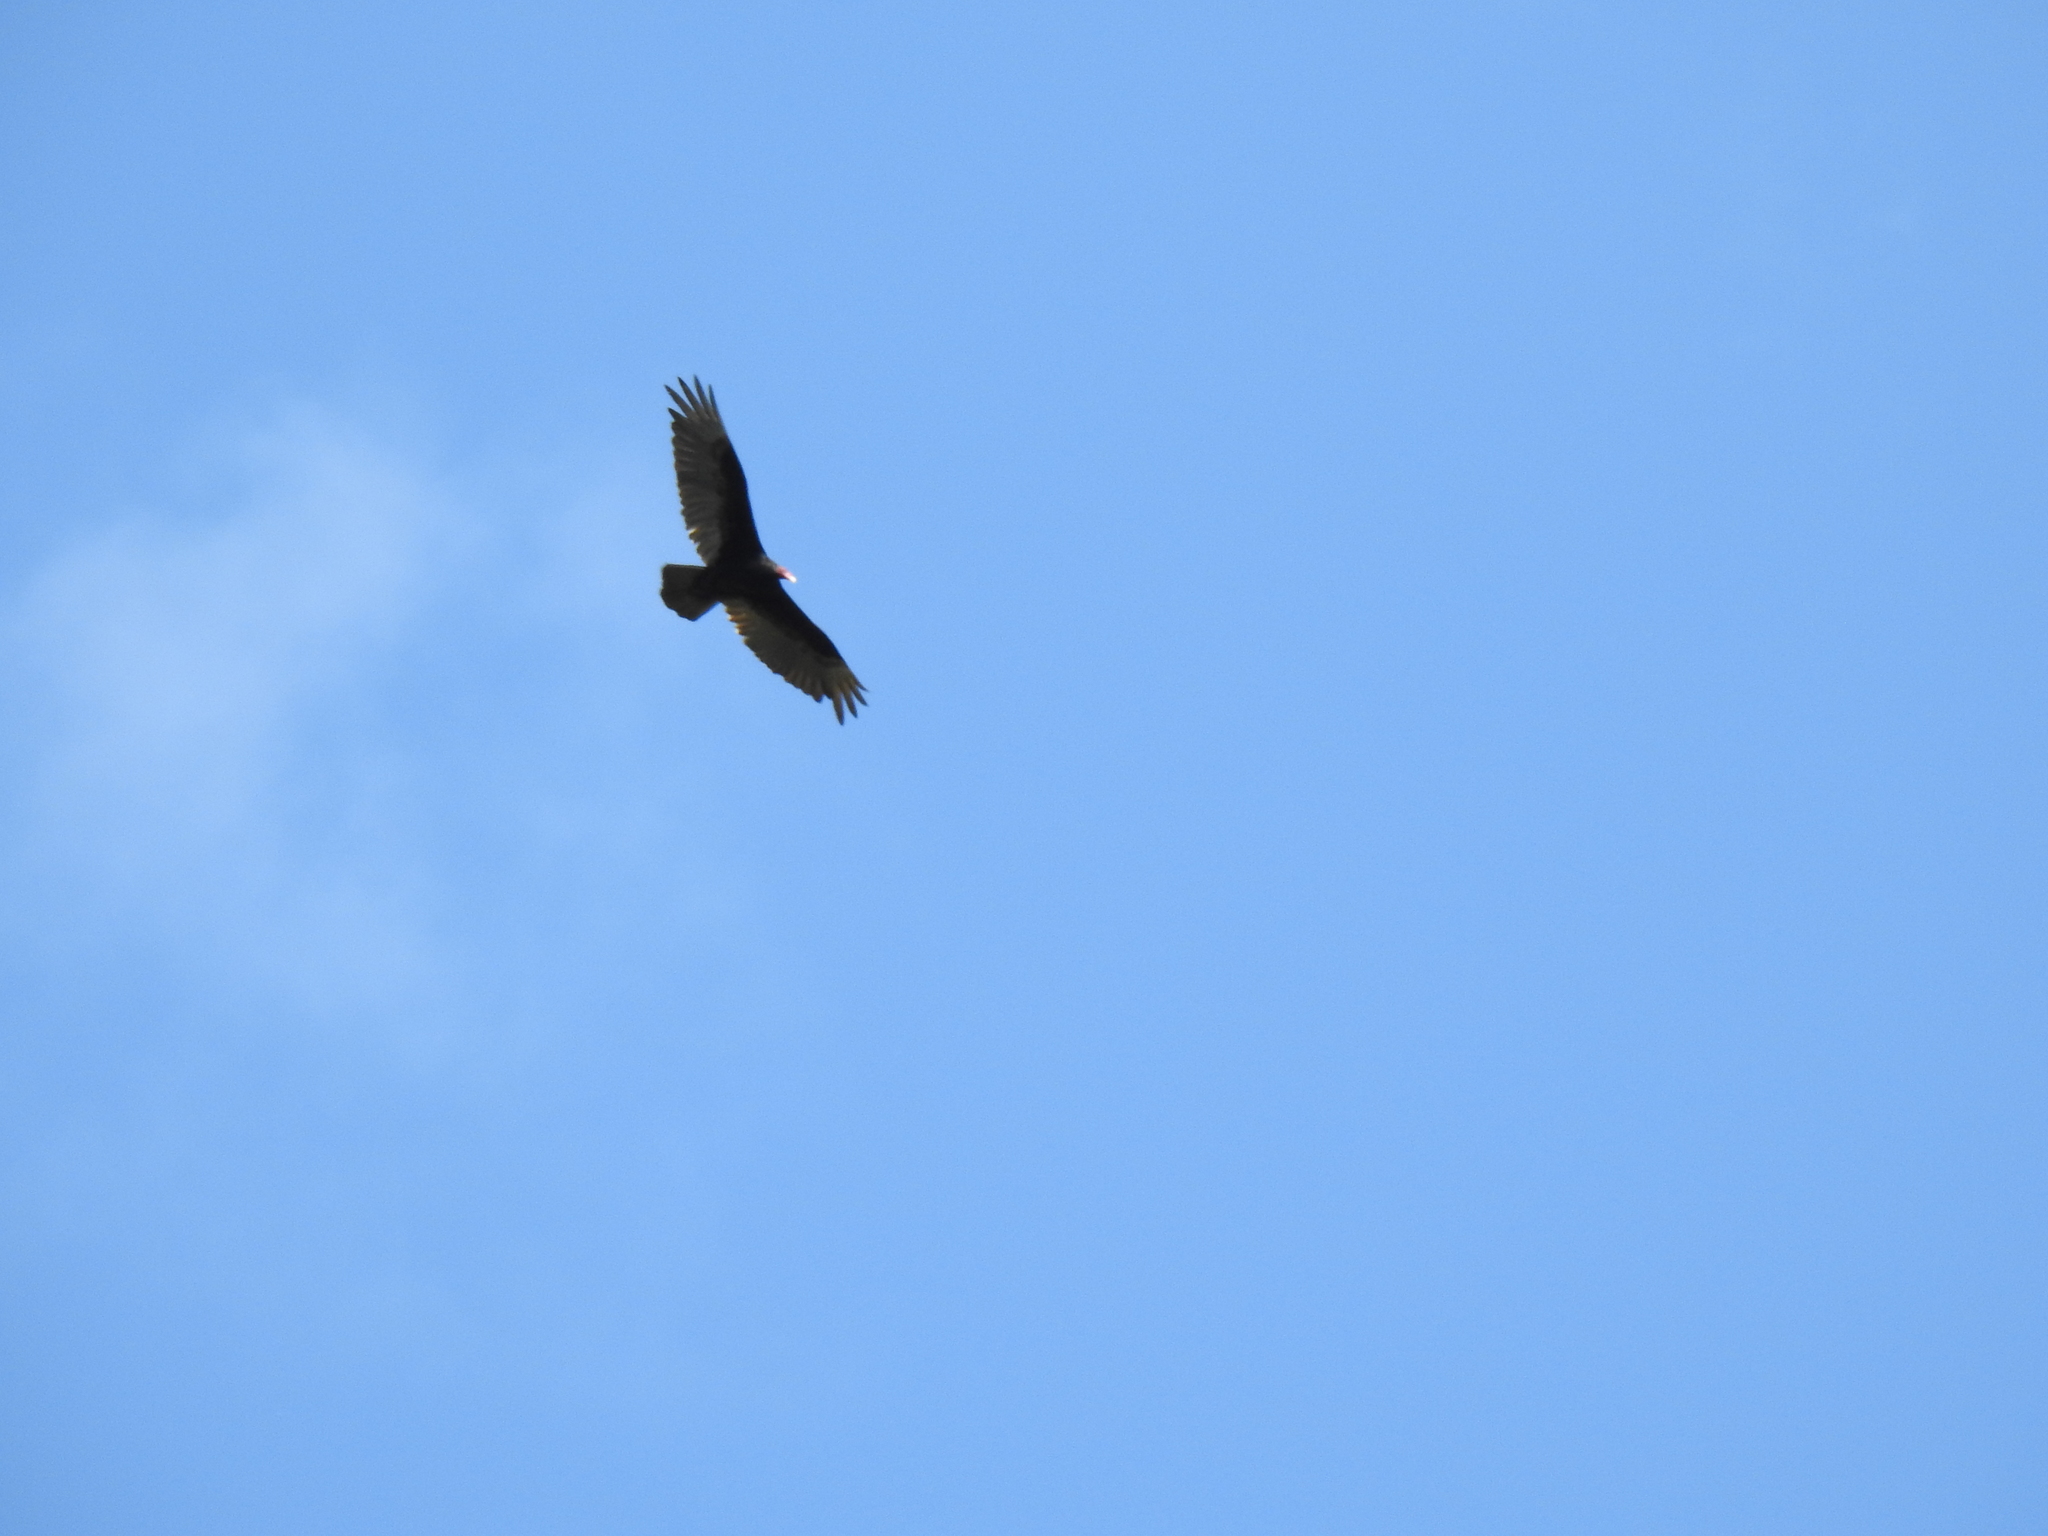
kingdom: Animalia
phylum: Chordata
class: Aves
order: Accipitriformes
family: Cathartidae
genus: Cathartes
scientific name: Cathartes aura
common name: Turkey vulture
